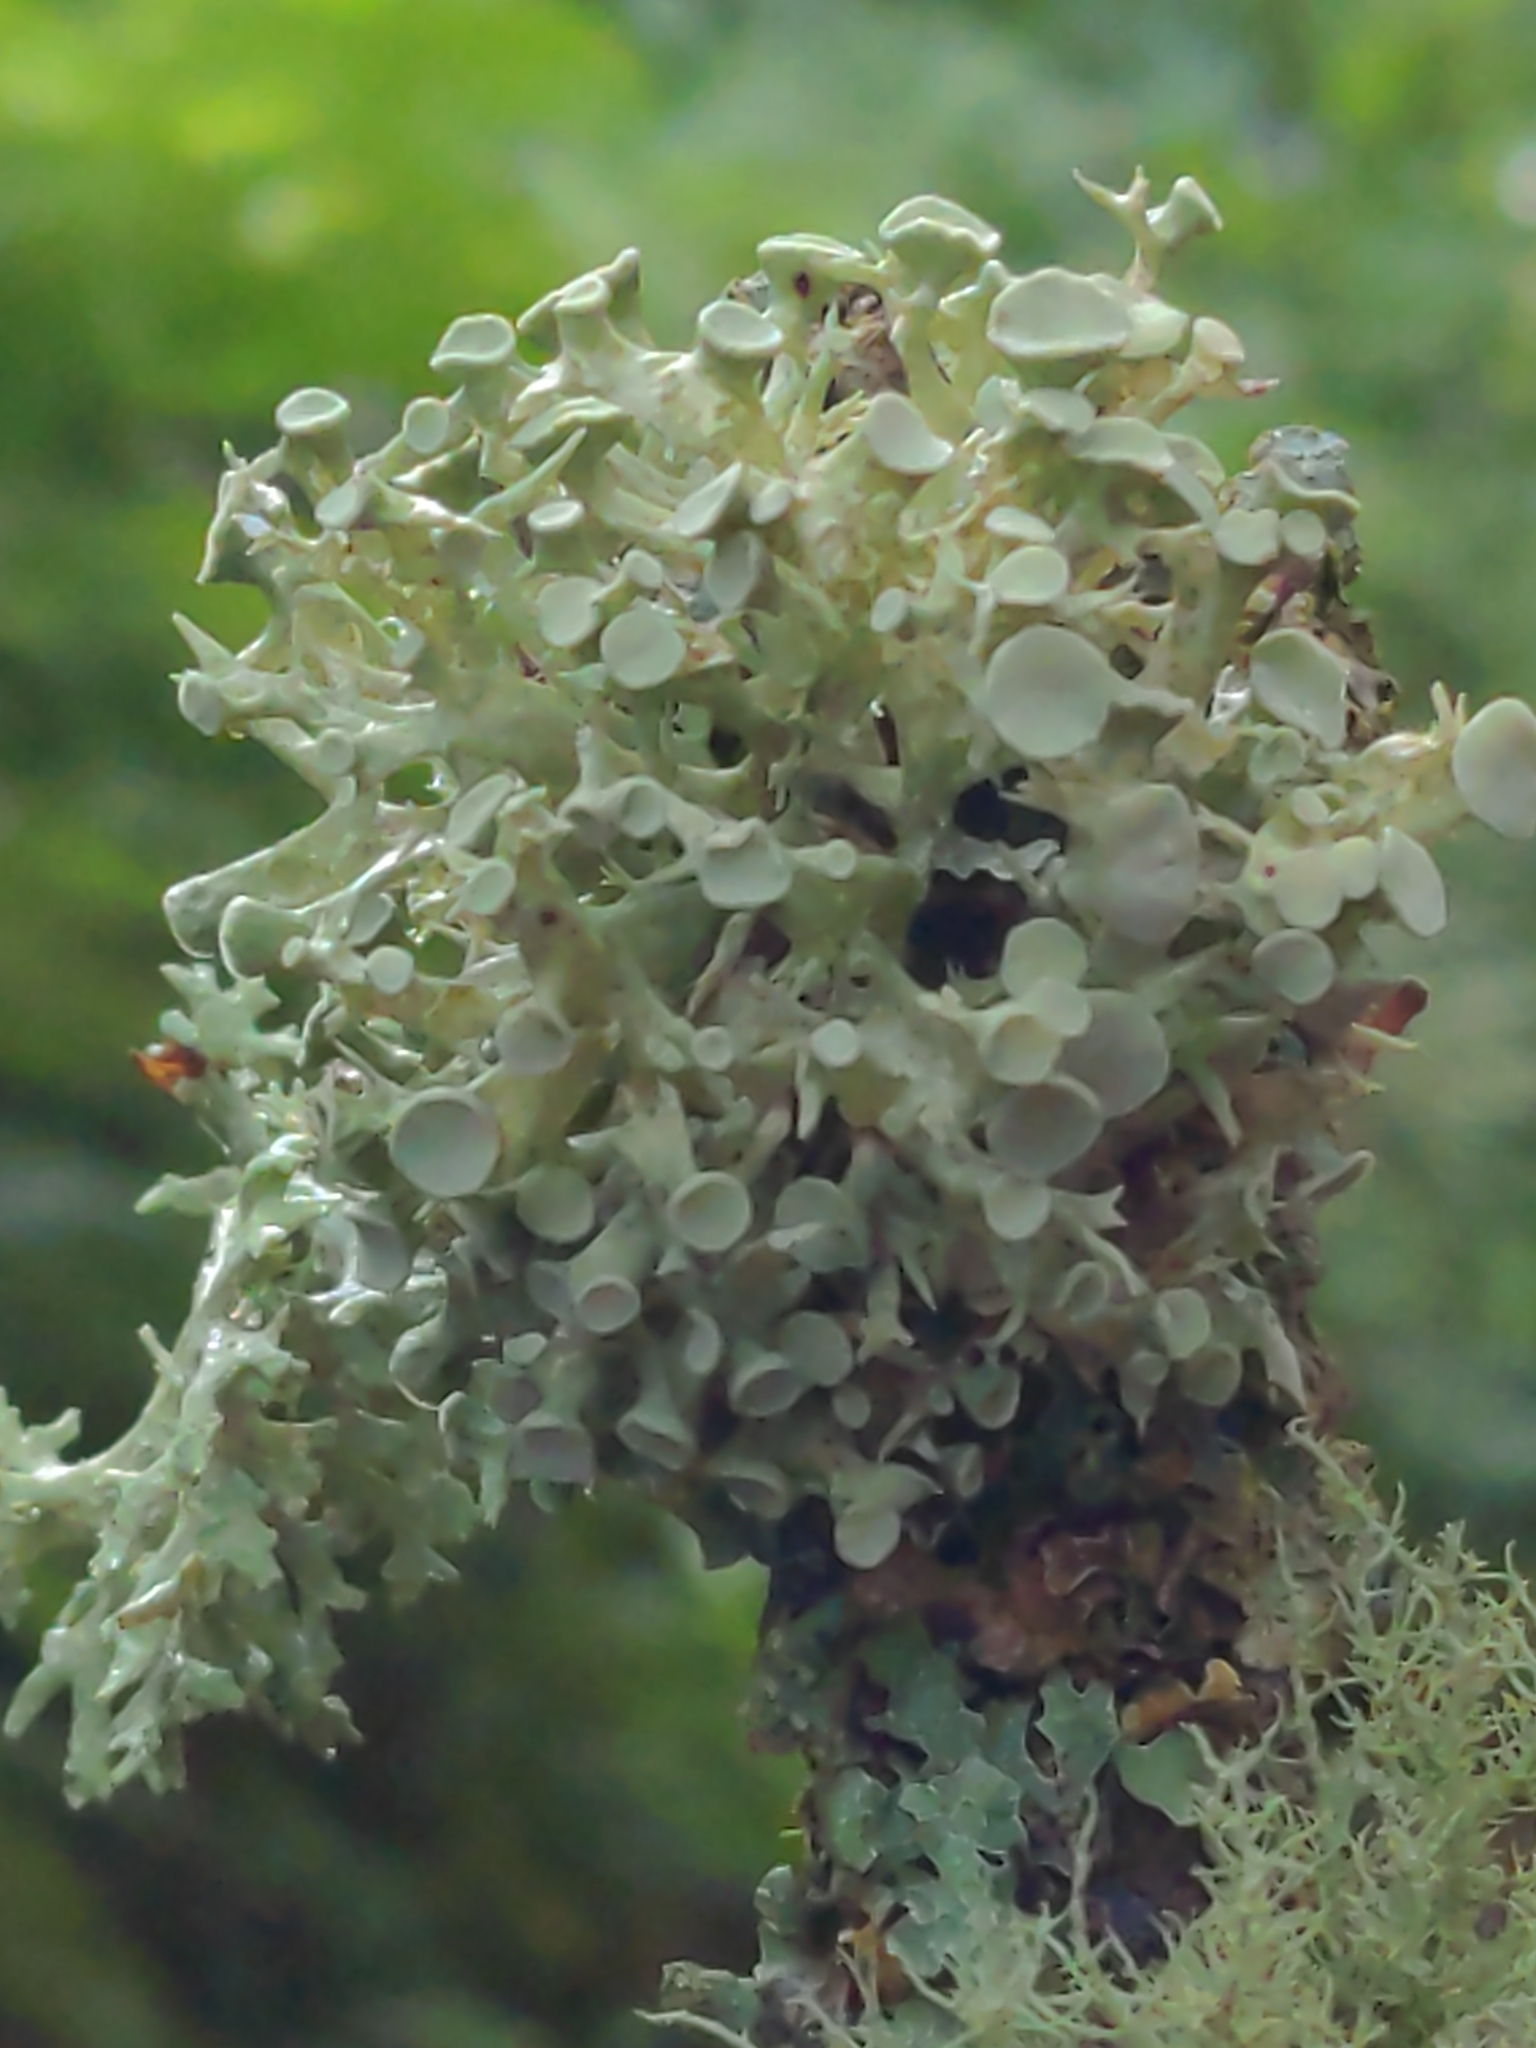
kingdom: Fungi
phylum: Ascomycota
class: Lecanoromycetes
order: Lecanorales
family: Ramalinaceae
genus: Ramalina
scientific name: Ramalina fastigiata
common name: Dotted ribbon lichen
